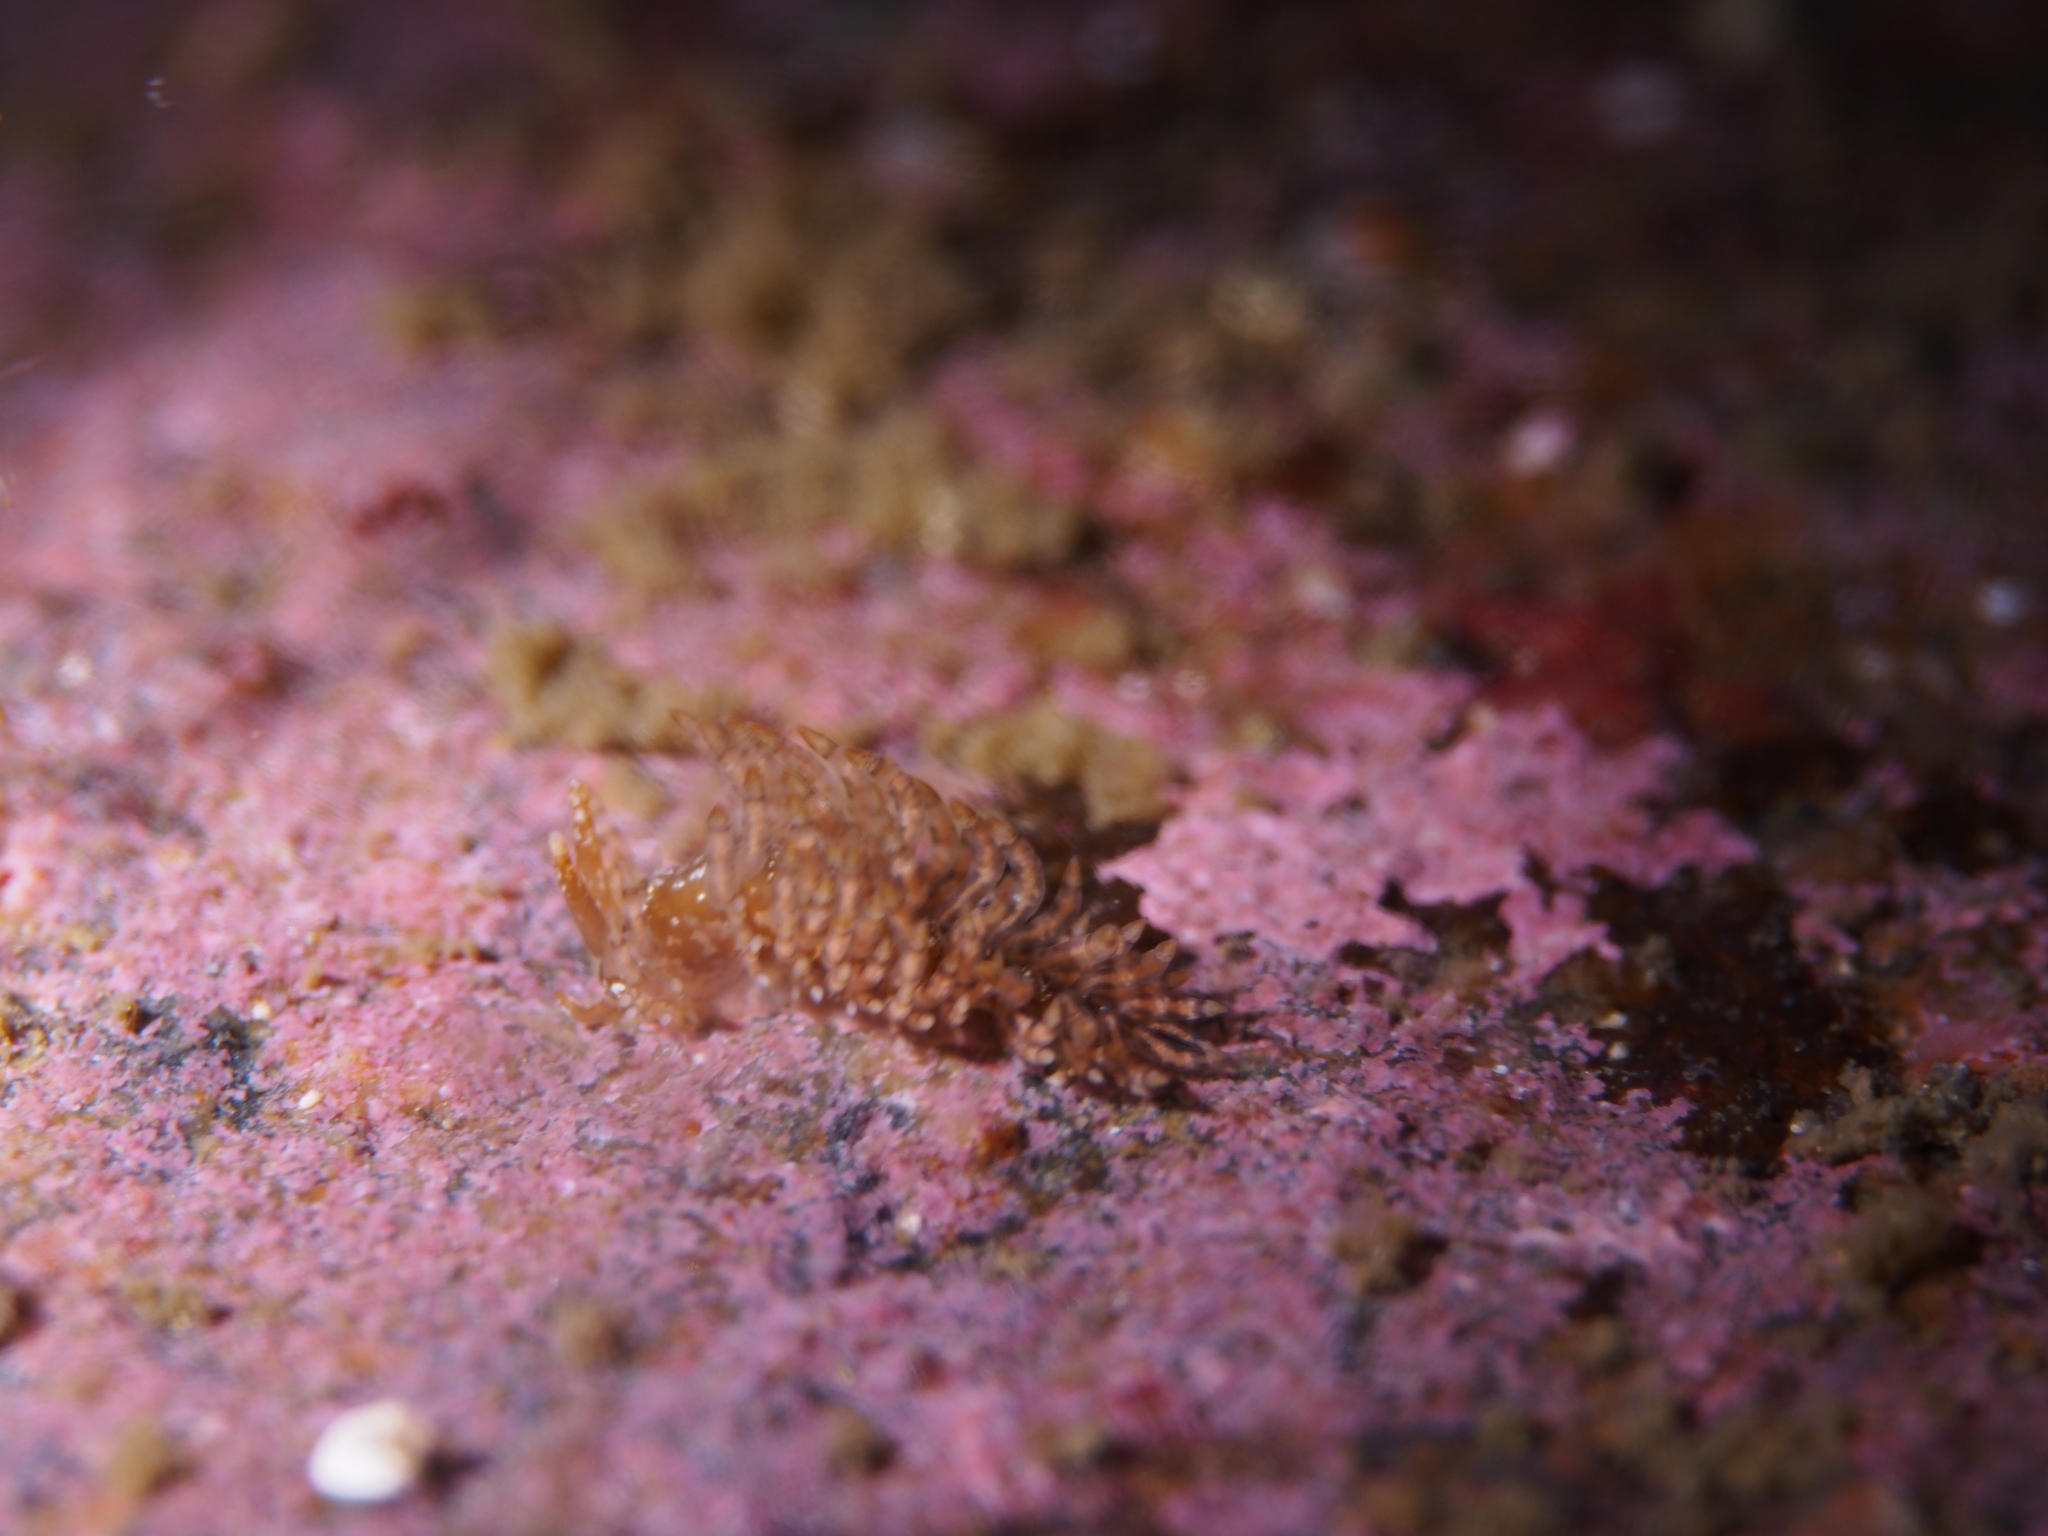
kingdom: Animalia
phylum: Mollusca
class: Gastropoda
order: Nudibranchia
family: Eubranchidae
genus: Eubranchus
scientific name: Eubranchus vittatus
